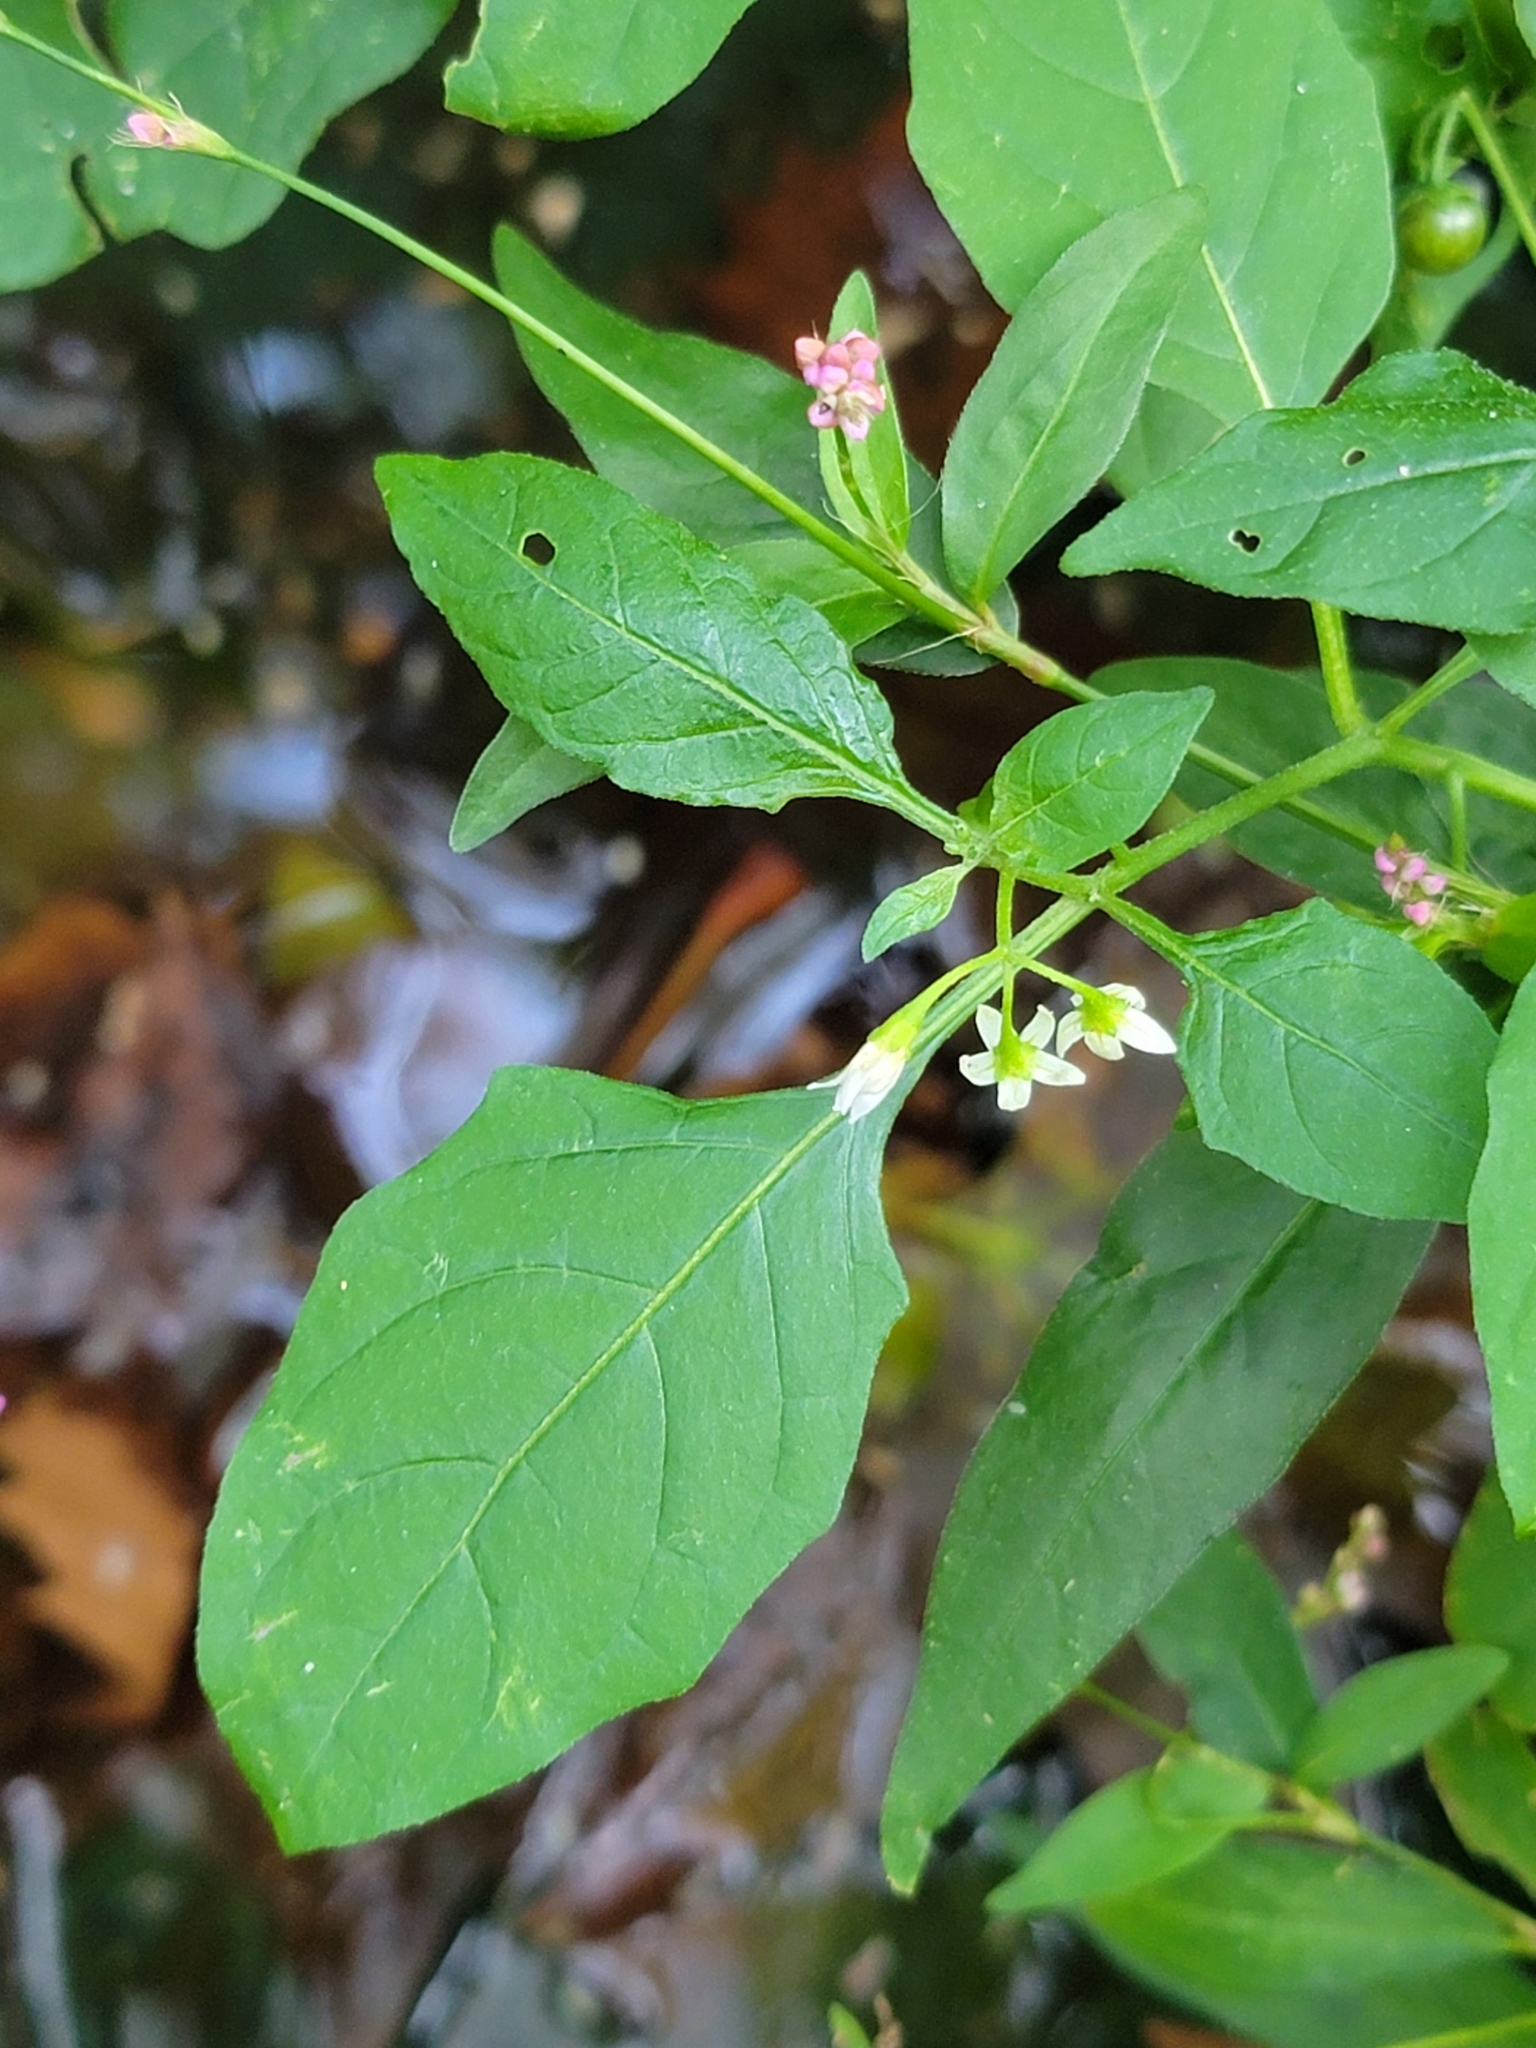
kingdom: Plantae
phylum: Tracheophyta
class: Magnoliopsida
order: Solanales
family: Solanaceae
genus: Solanum
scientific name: Solanum emulans
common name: Eastern black nightshade
